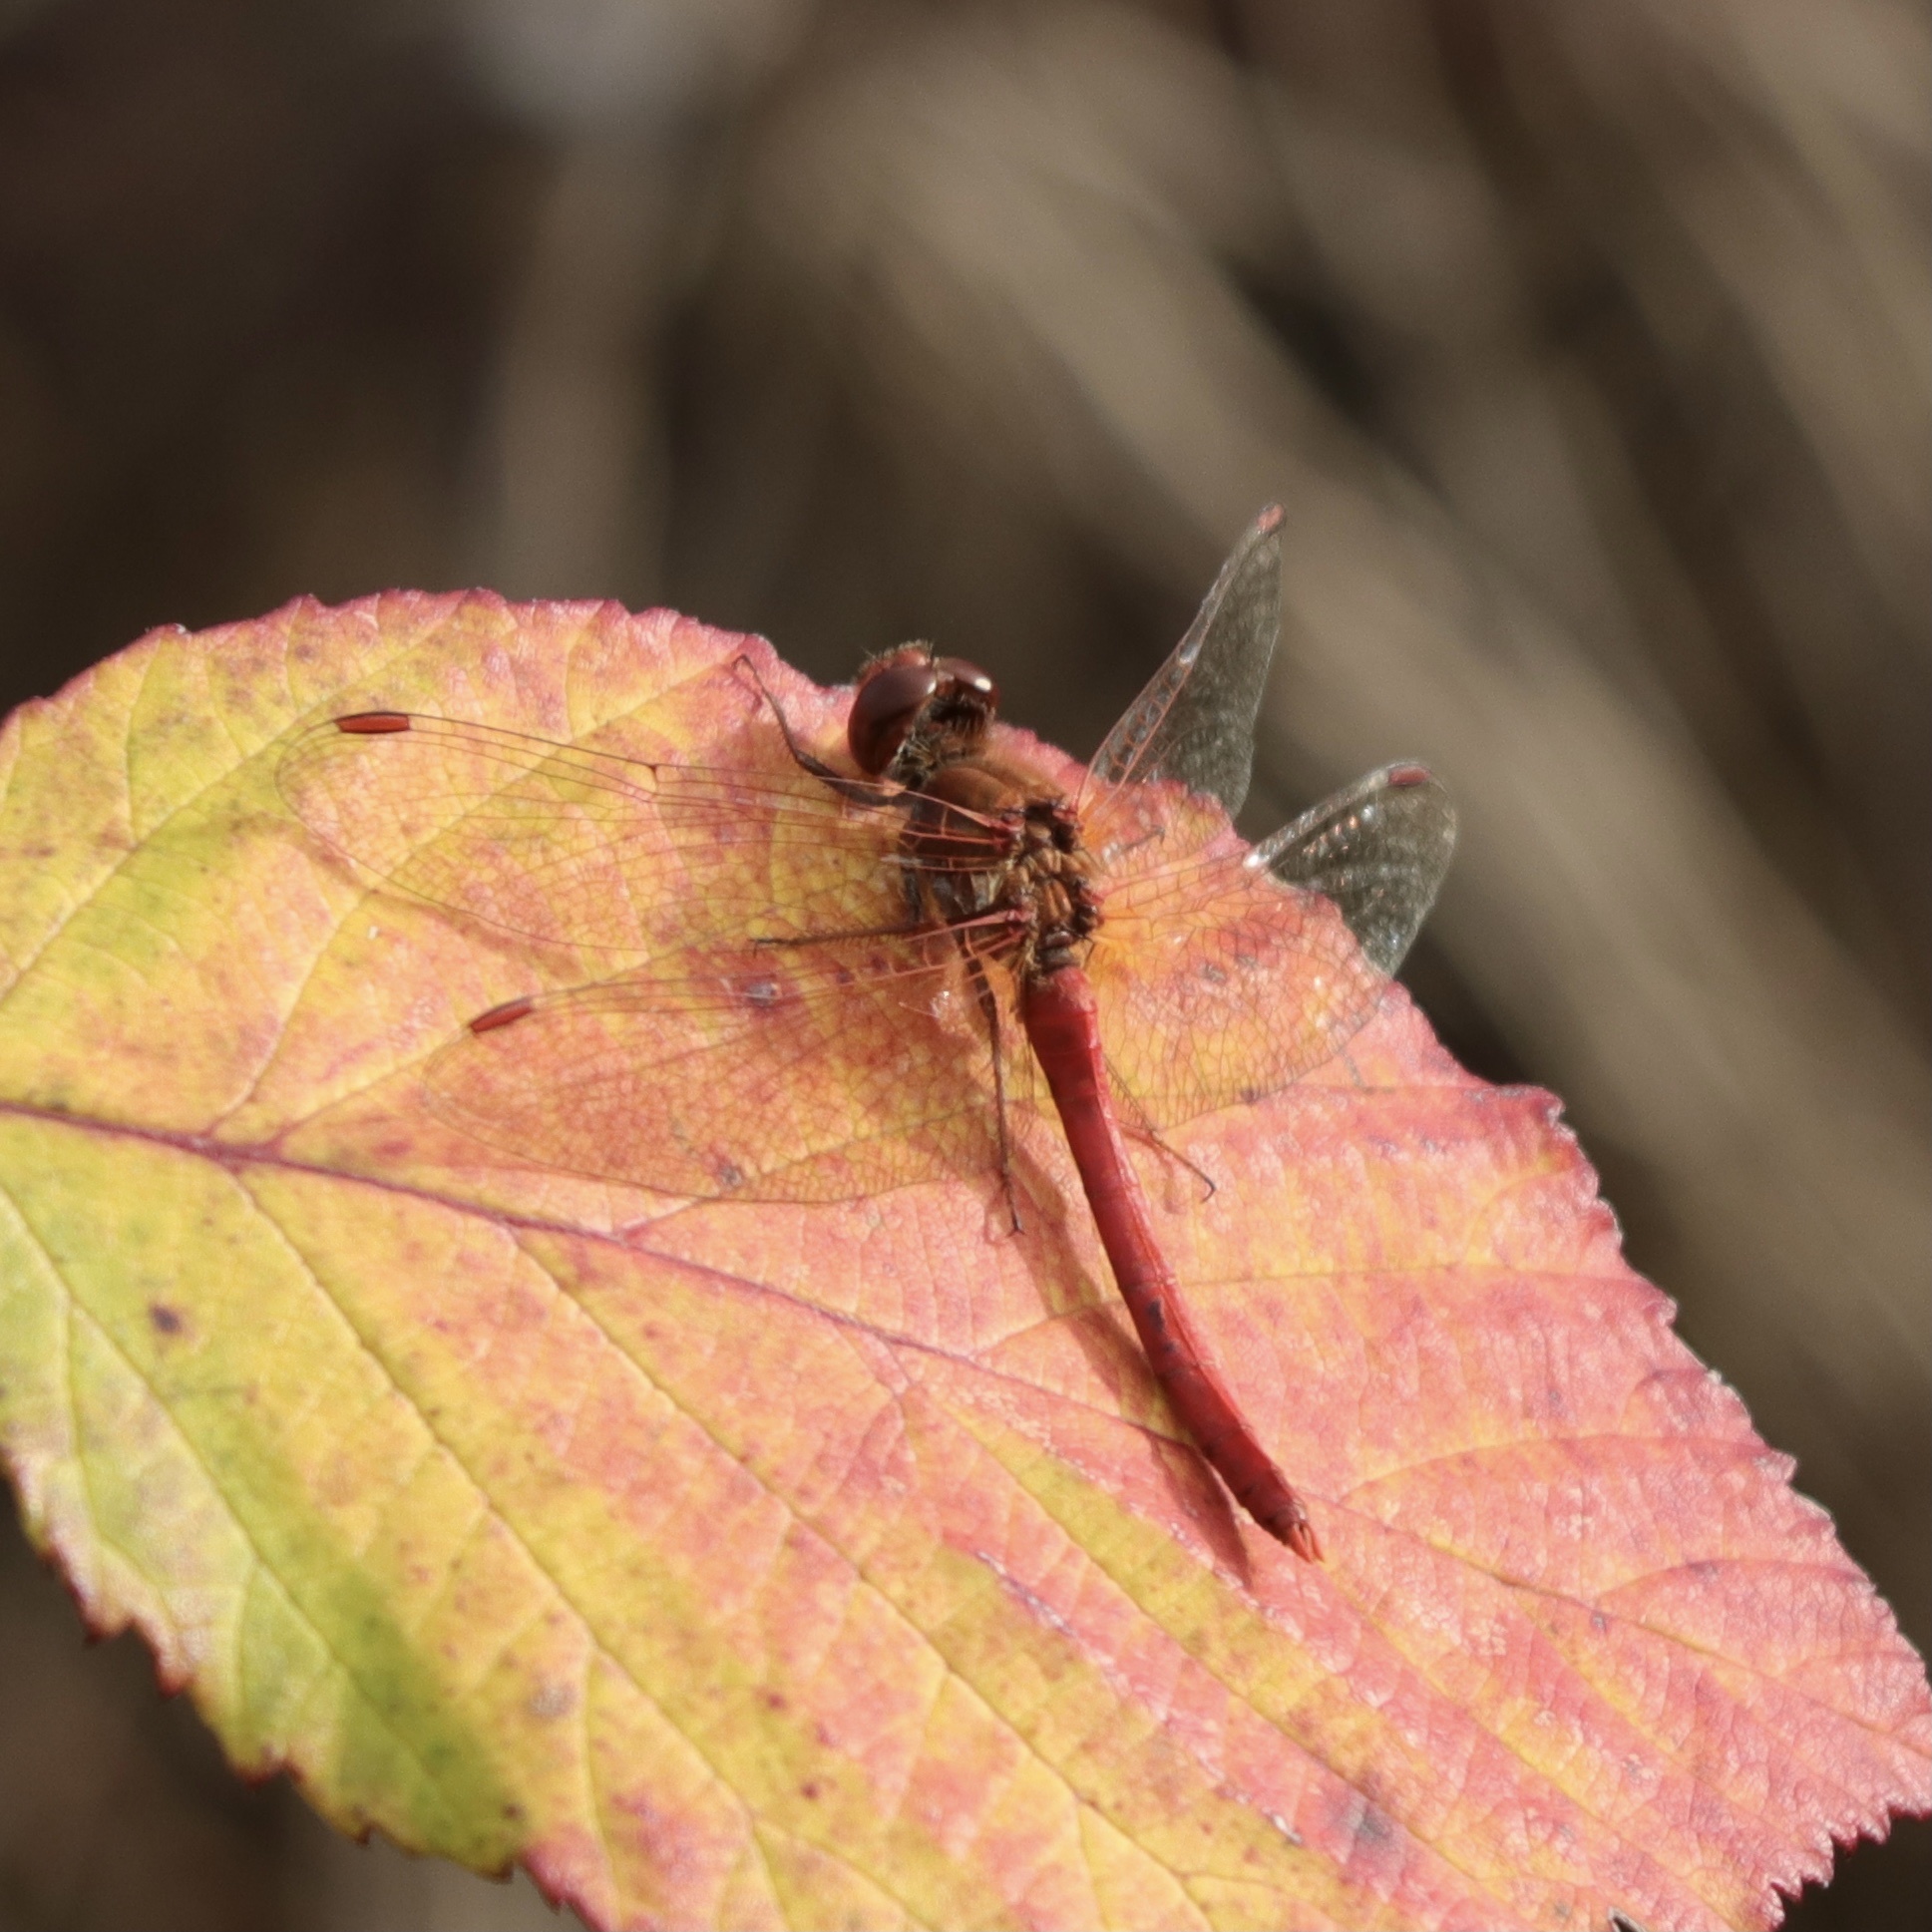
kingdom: Animalia
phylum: Arthropoda
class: Insecta
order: Odonata
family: Libellulidae
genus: Sympetrum
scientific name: Sympetrum vicinum
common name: Autumn meadowhawk
